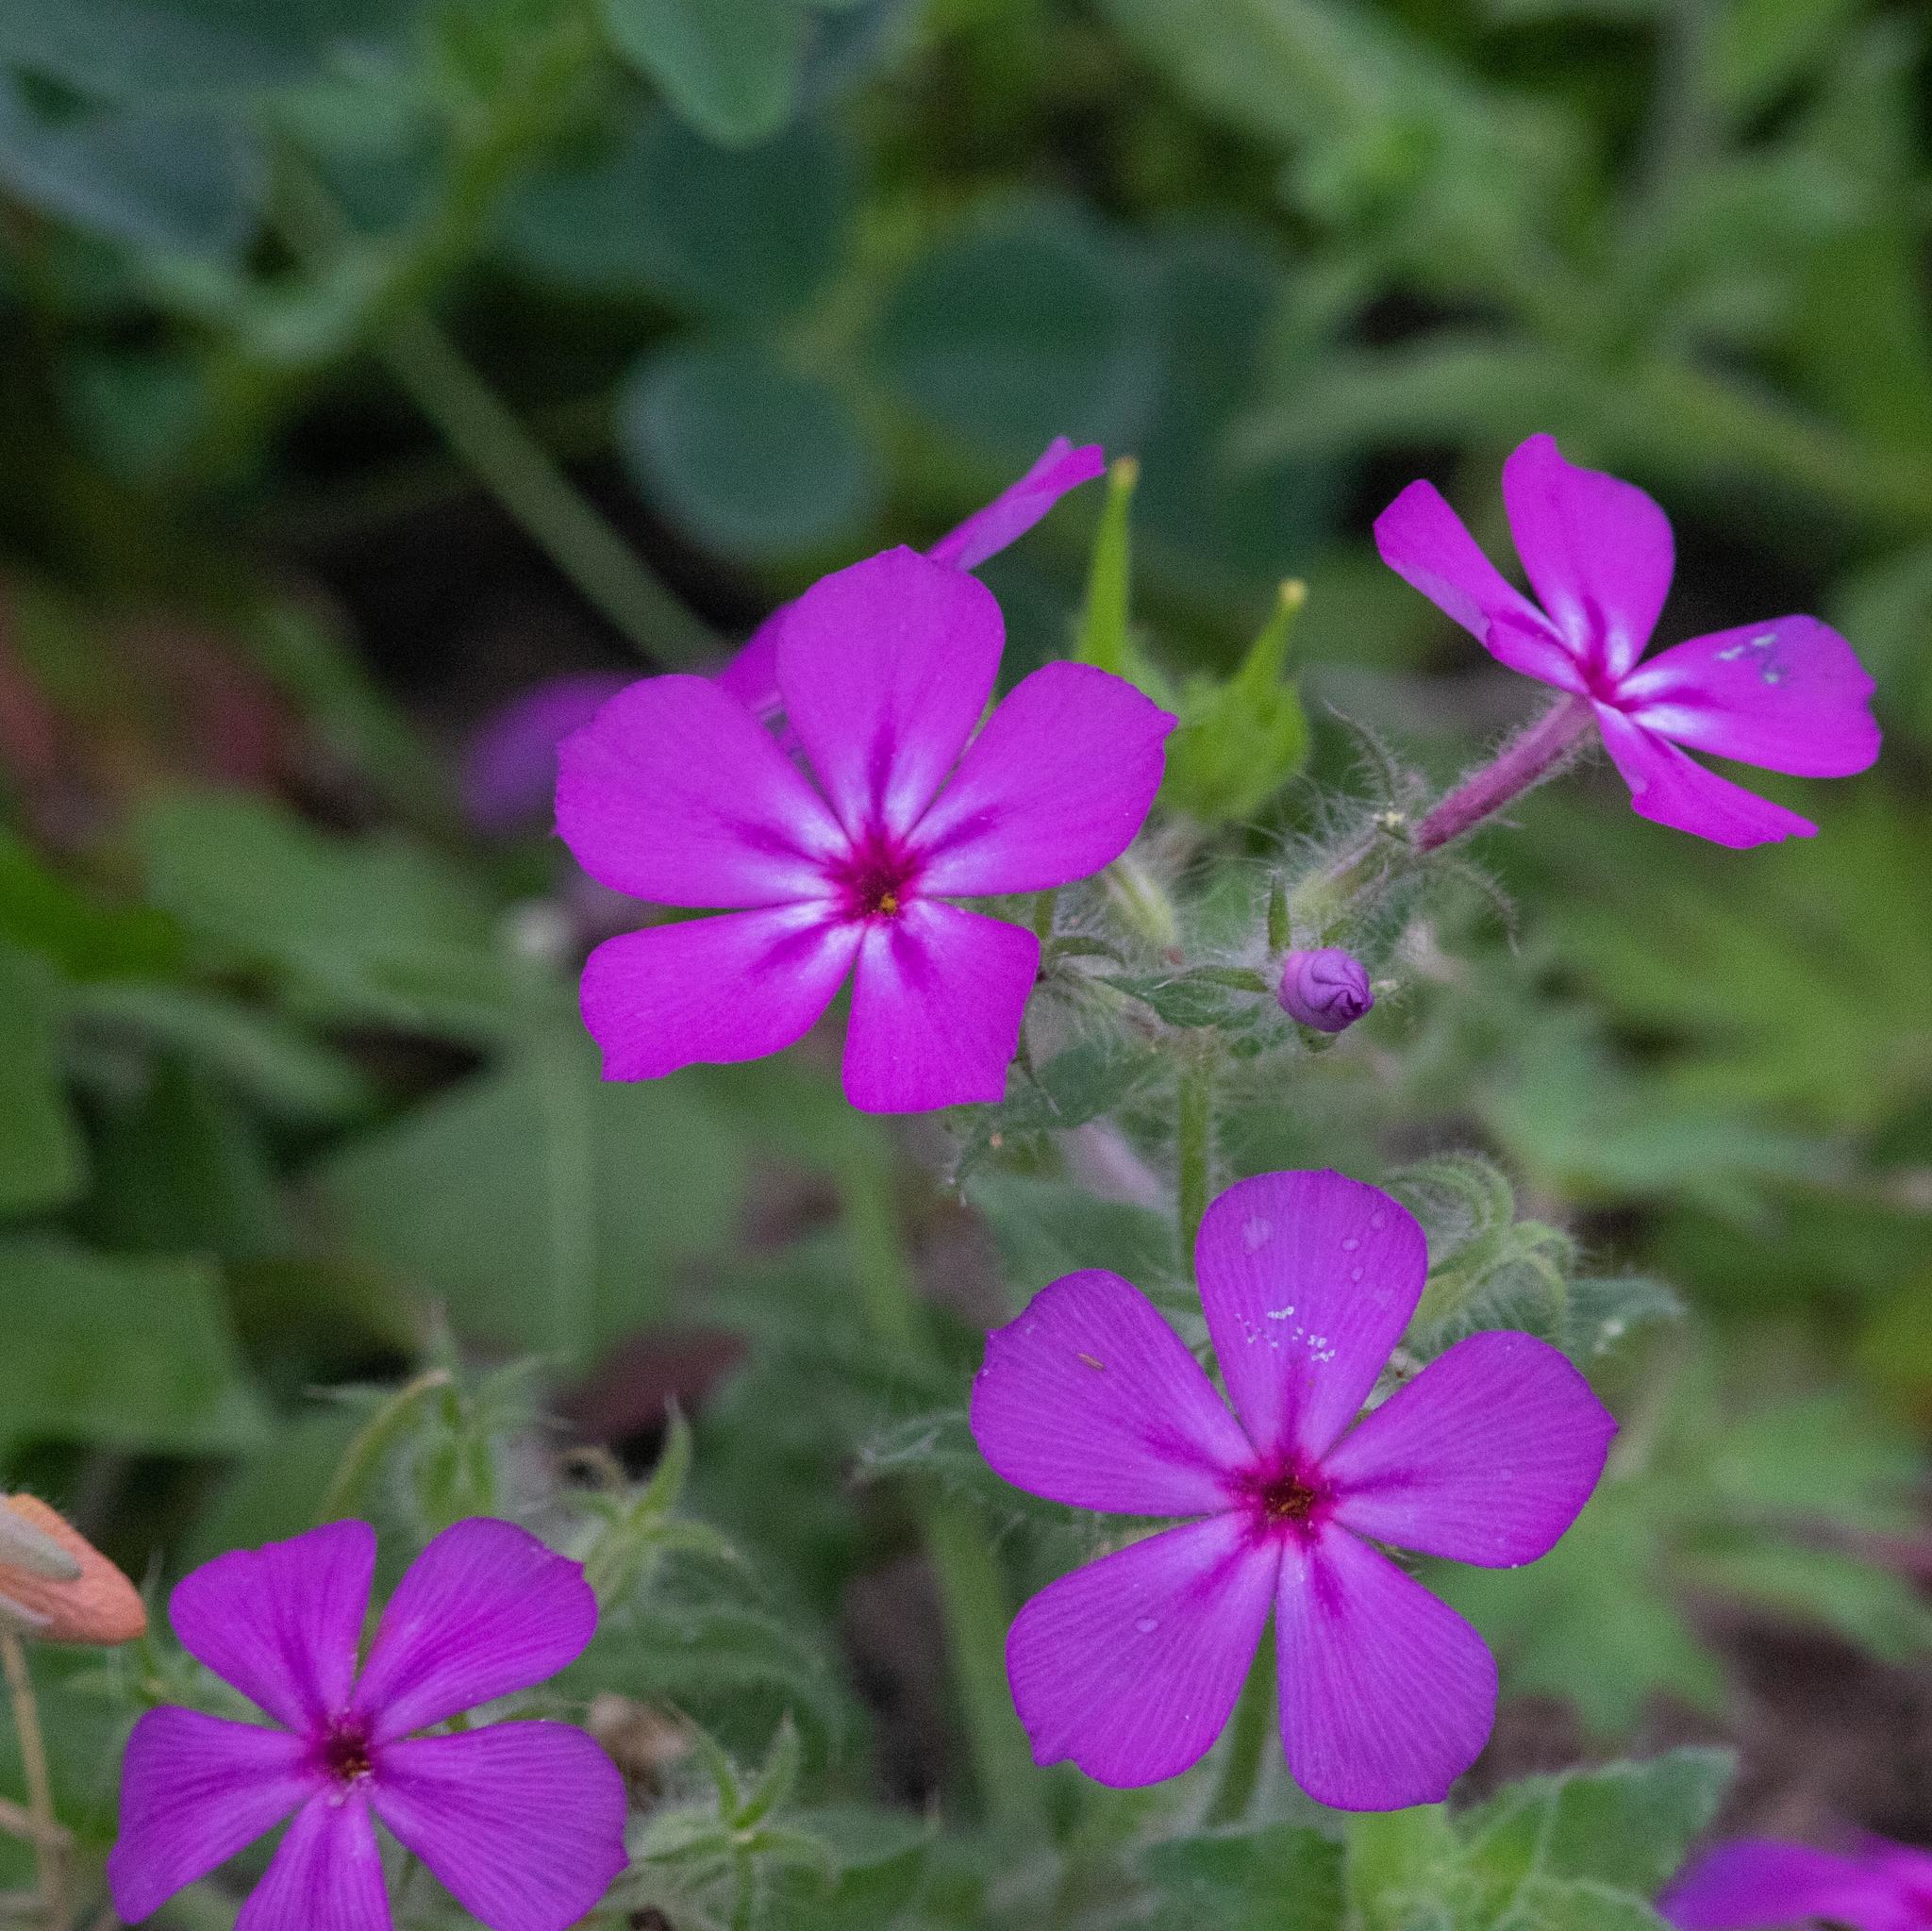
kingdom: Plantae
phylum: Tracheophyta
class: Magnoliopsida
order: Ericales
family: Polemoniaceae
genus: Phlox
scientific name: Phlox drummondii
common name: Drummond's phlox
